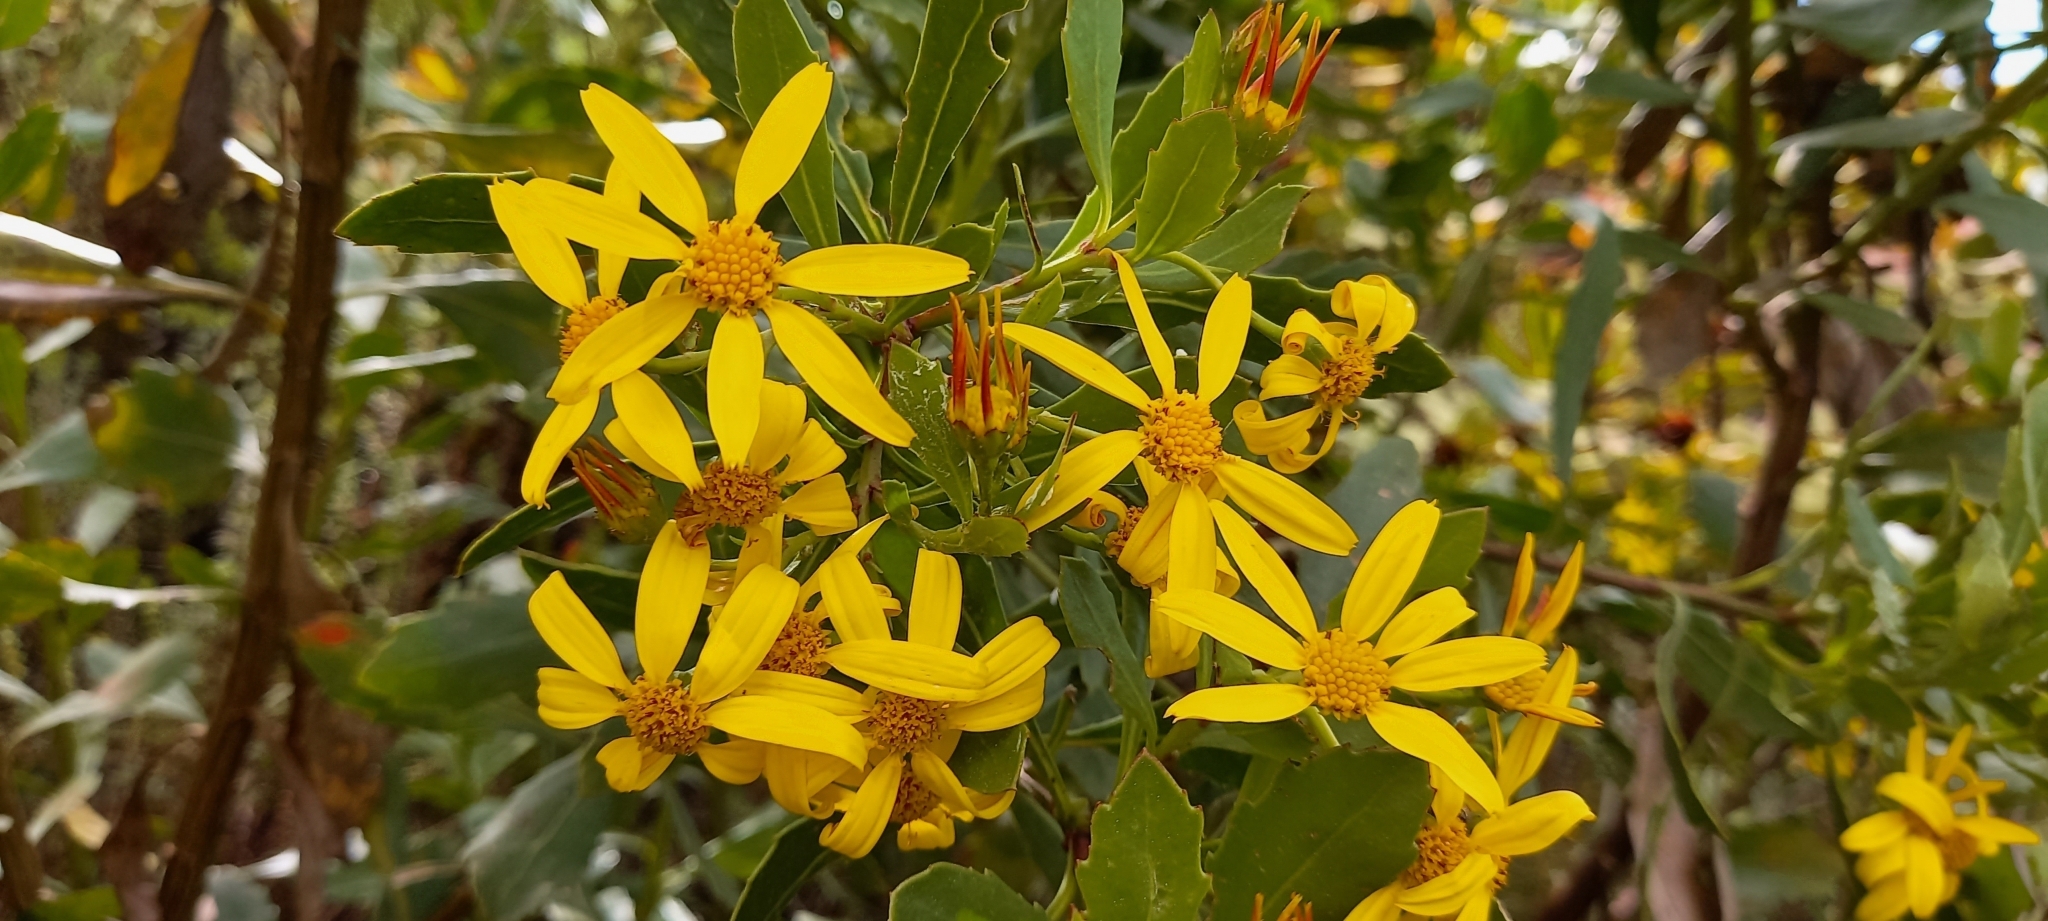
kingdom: Plantae
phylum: Tracheophyta
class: Magnoliopsida
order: Asterales
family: Asteraceae
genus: Osteospermum
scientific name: Osteospermum moniliferum
